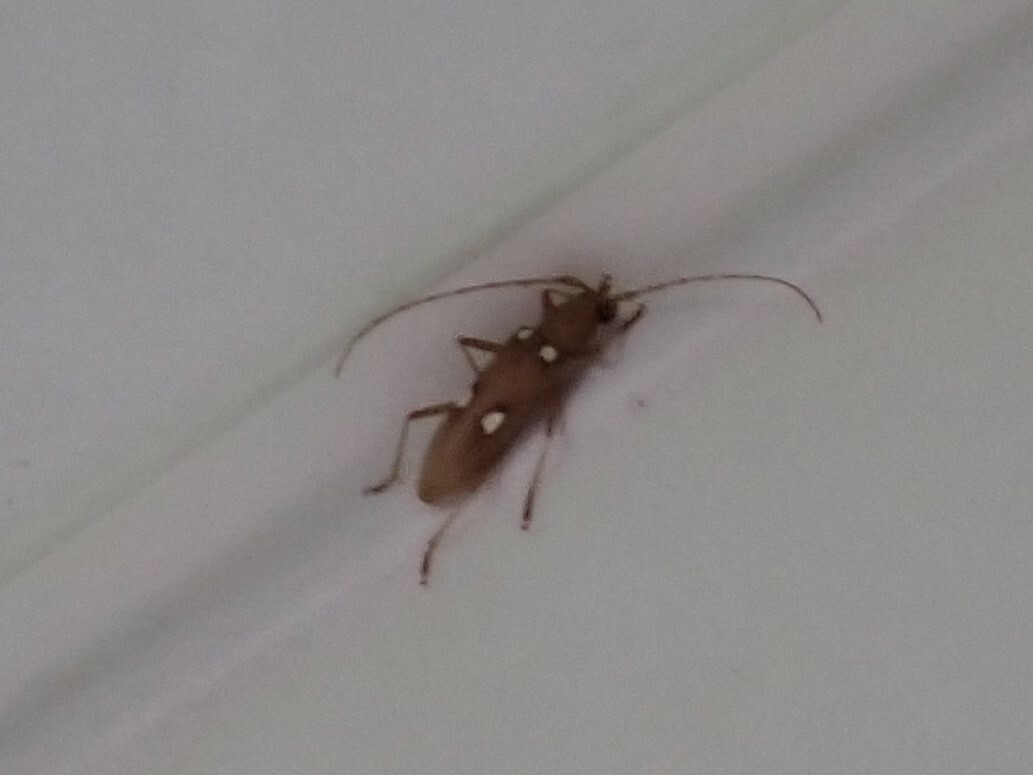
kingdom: Animalia
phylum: Arthropoda
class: Insecta
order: Coleoptera
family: Cerambycidae
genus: Eburia
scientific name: Eburia quadrigeminata
